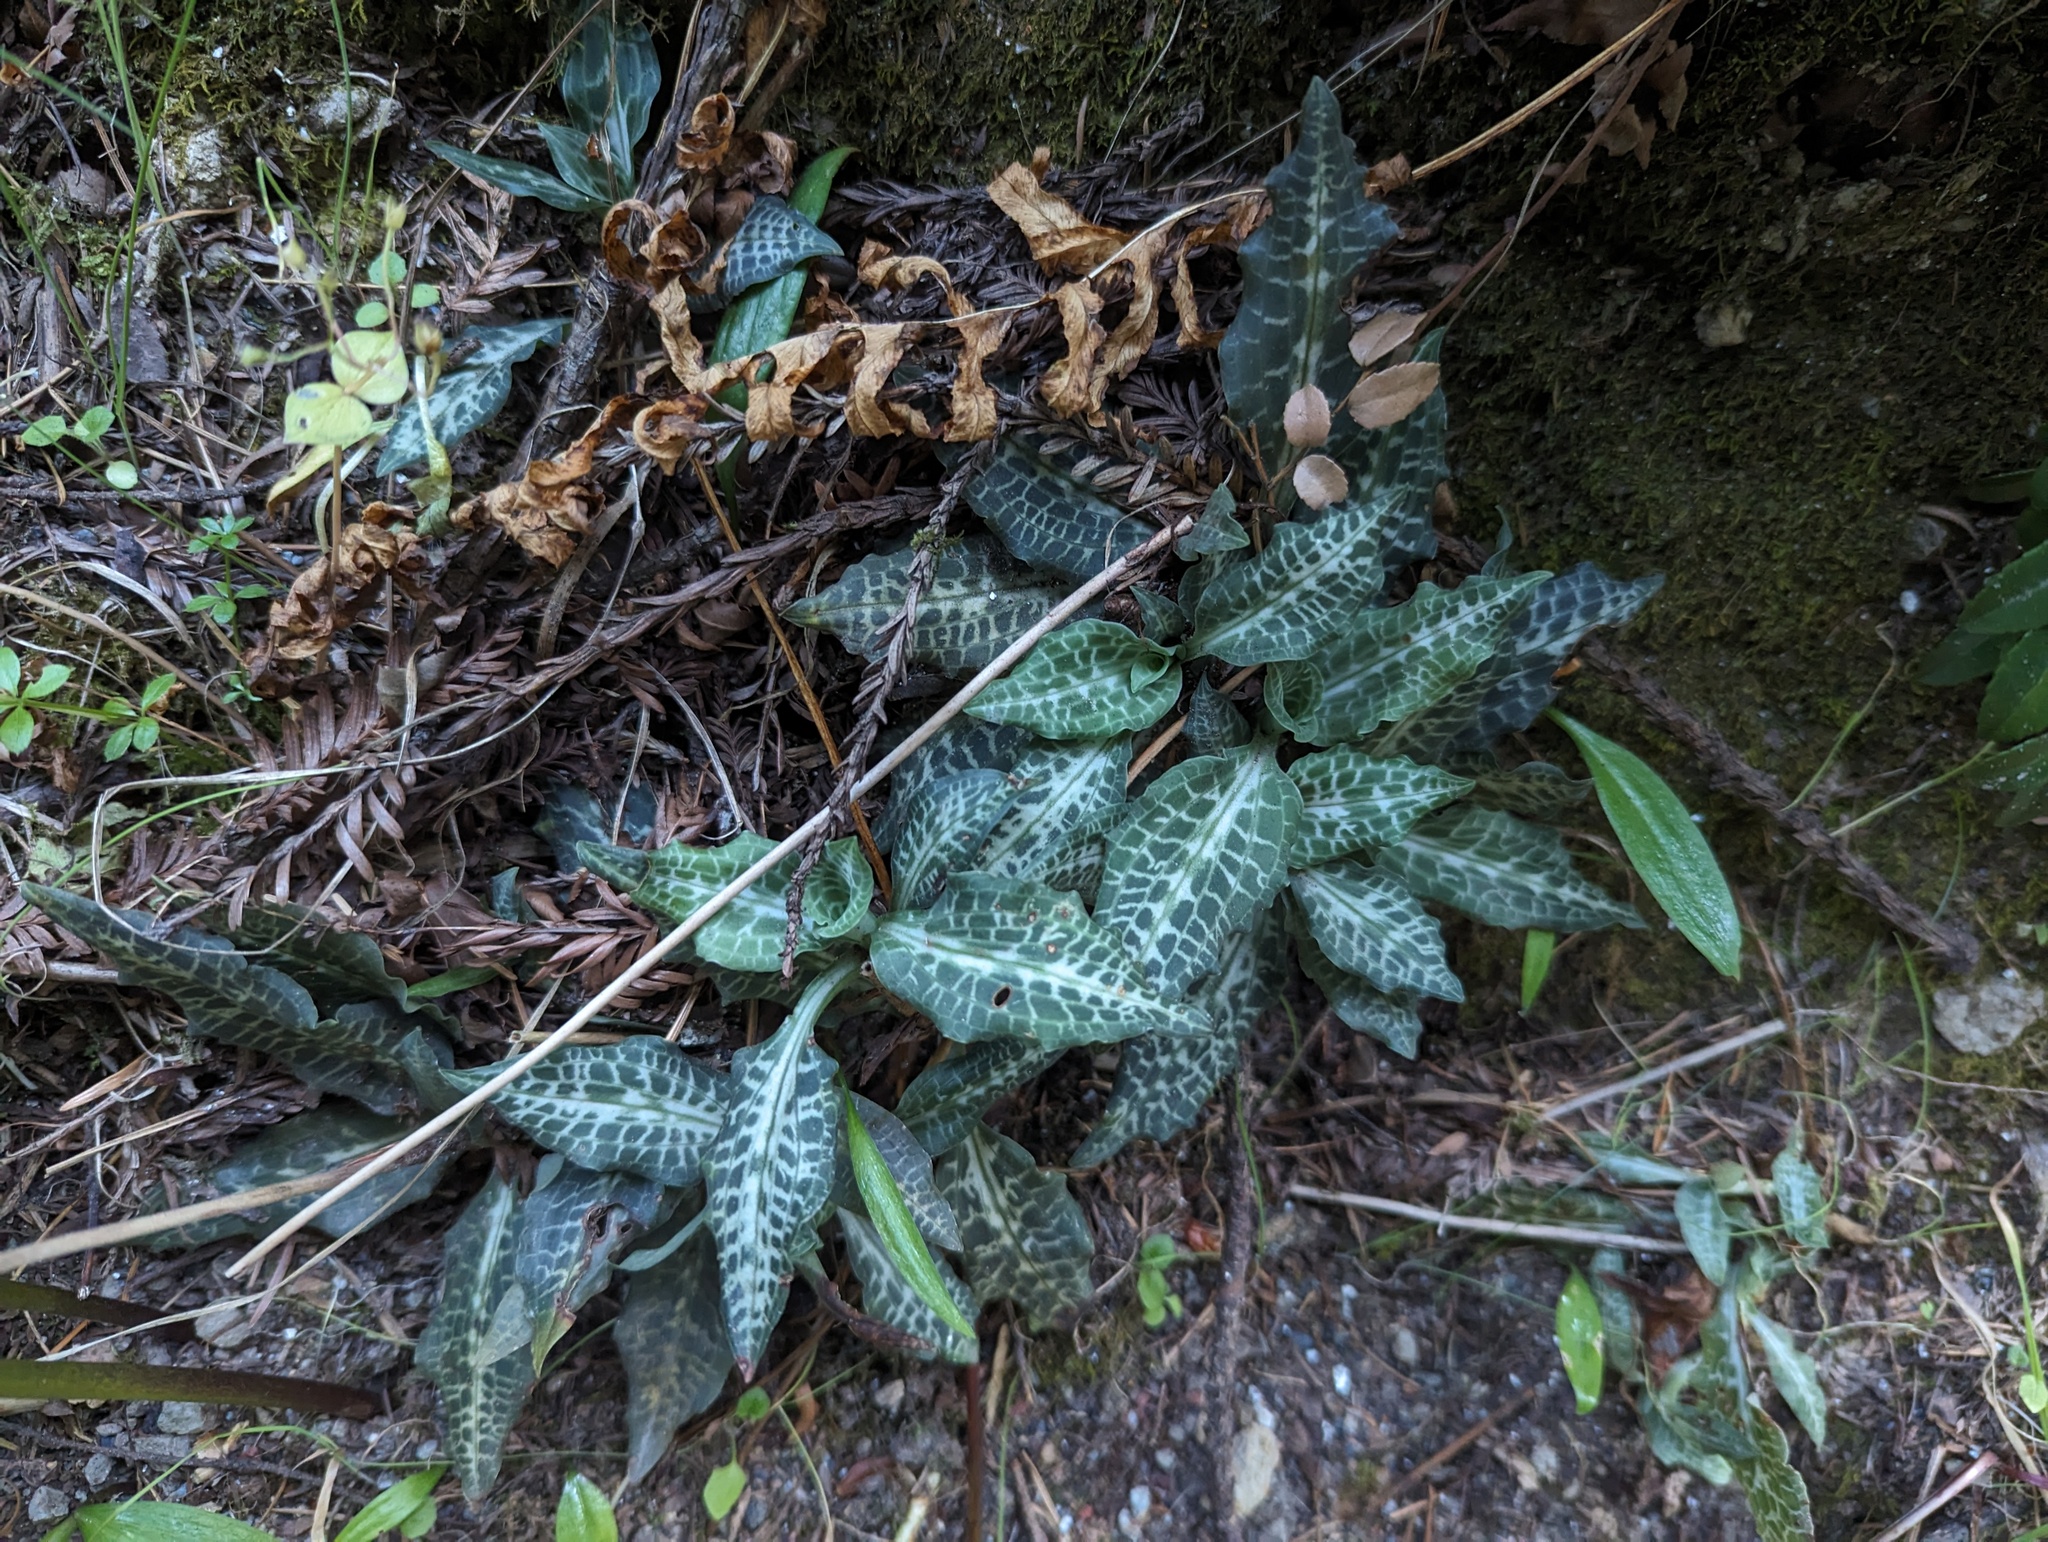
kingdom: Plantae
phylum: Tracheophyta
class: Liliopsida
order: Asparagales
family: Orchidaceae
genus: Goodyera
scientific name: Goodyera oblongifolia
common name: Giant rattlesnake-plantain
